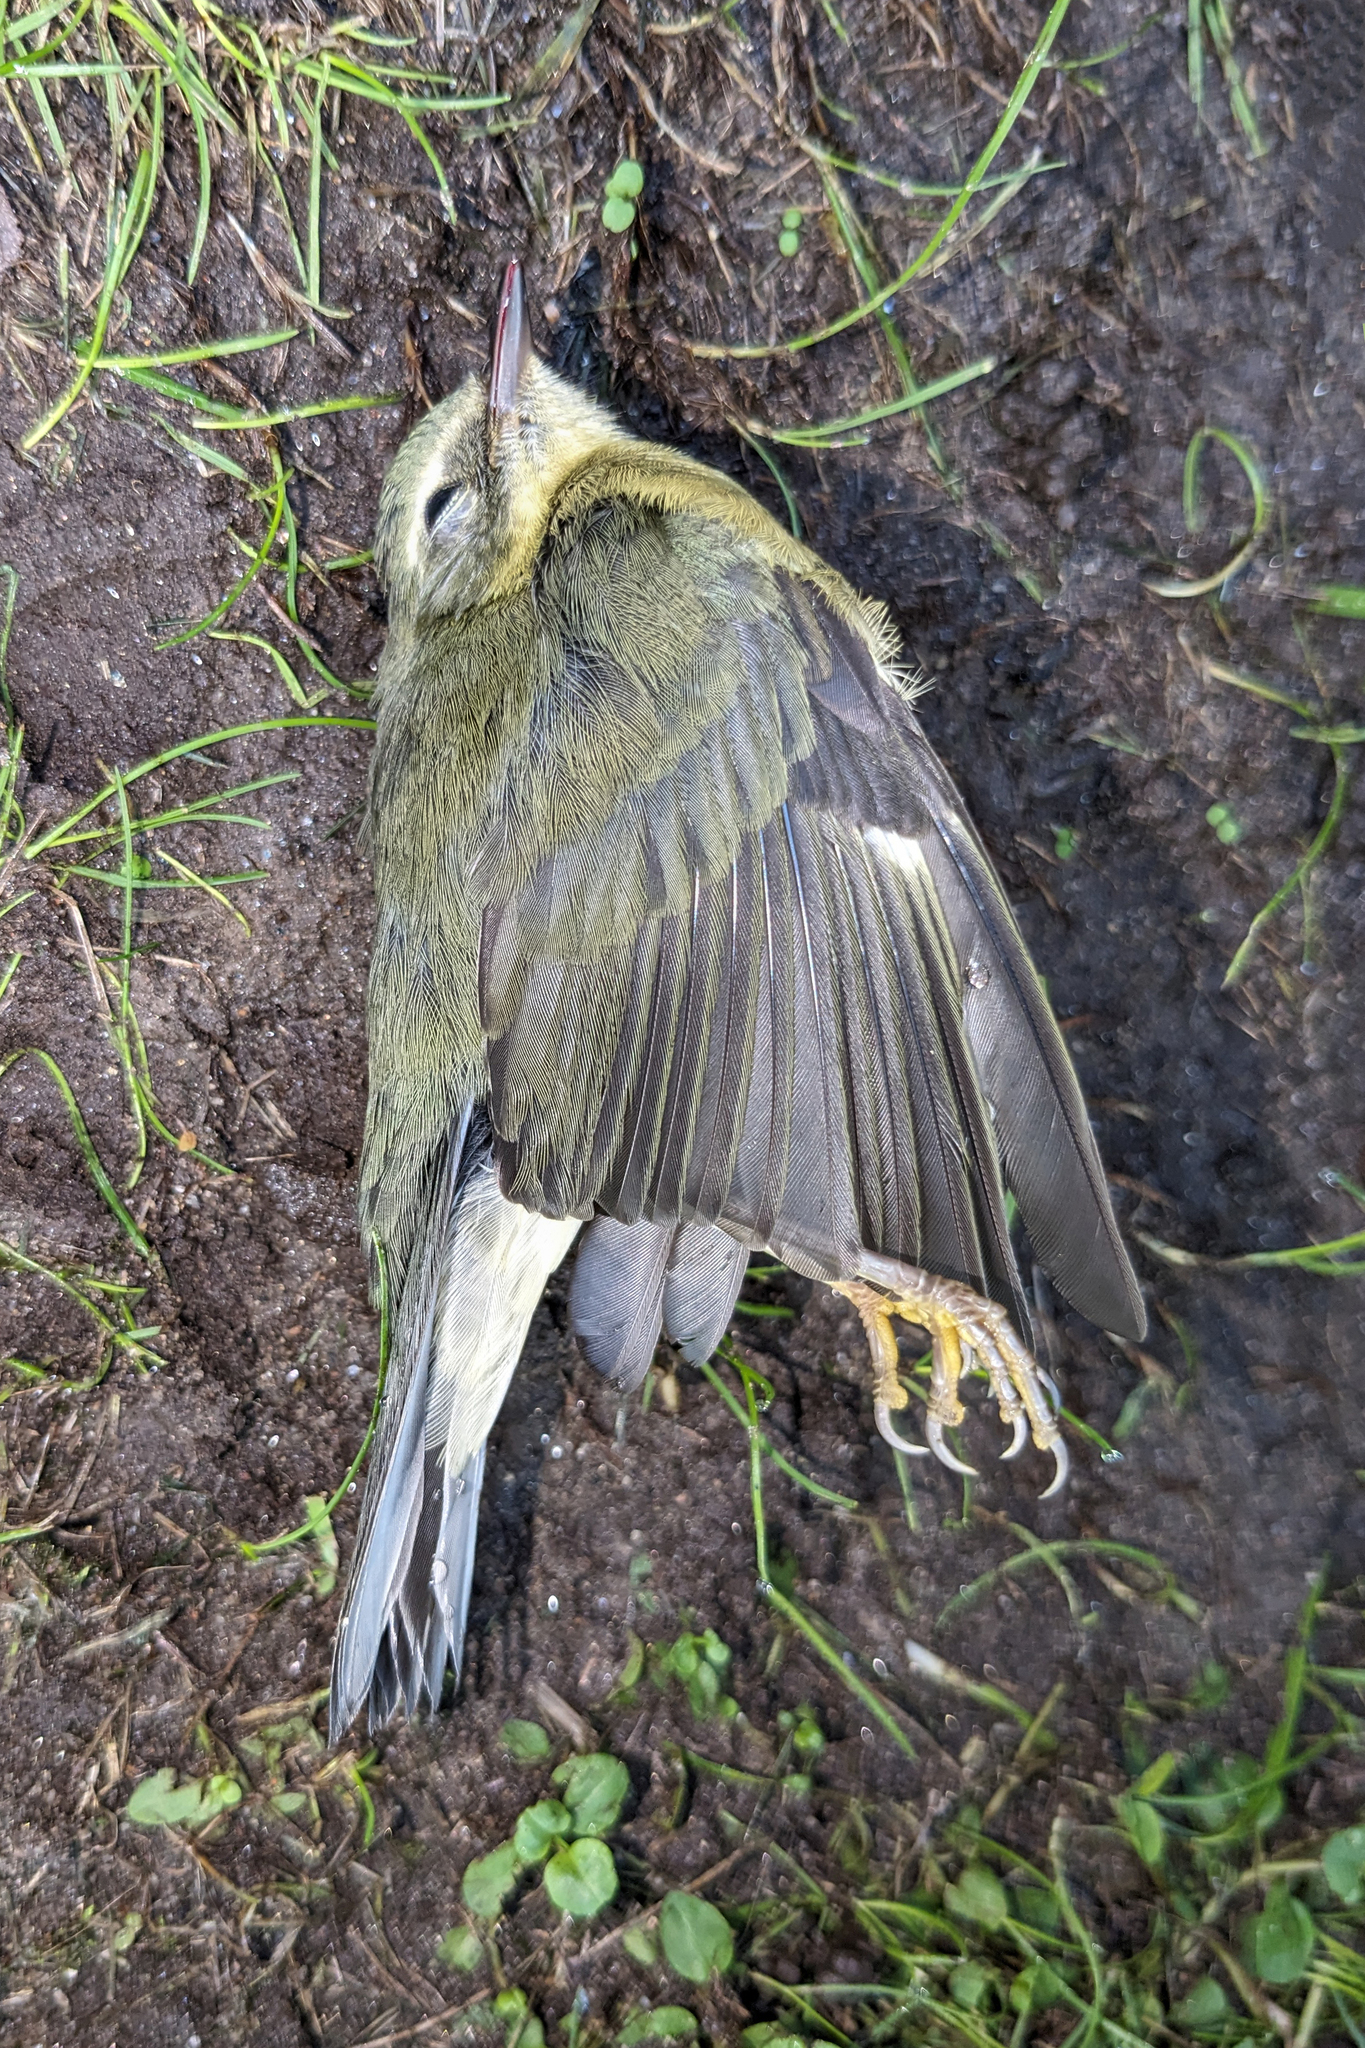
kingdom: Animalia
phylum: Chordata
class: Aves
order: Passeriformes
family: Parulidae
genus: Setophaga
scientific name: Setophaga caerulescens
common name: Black-throated blue warbler
